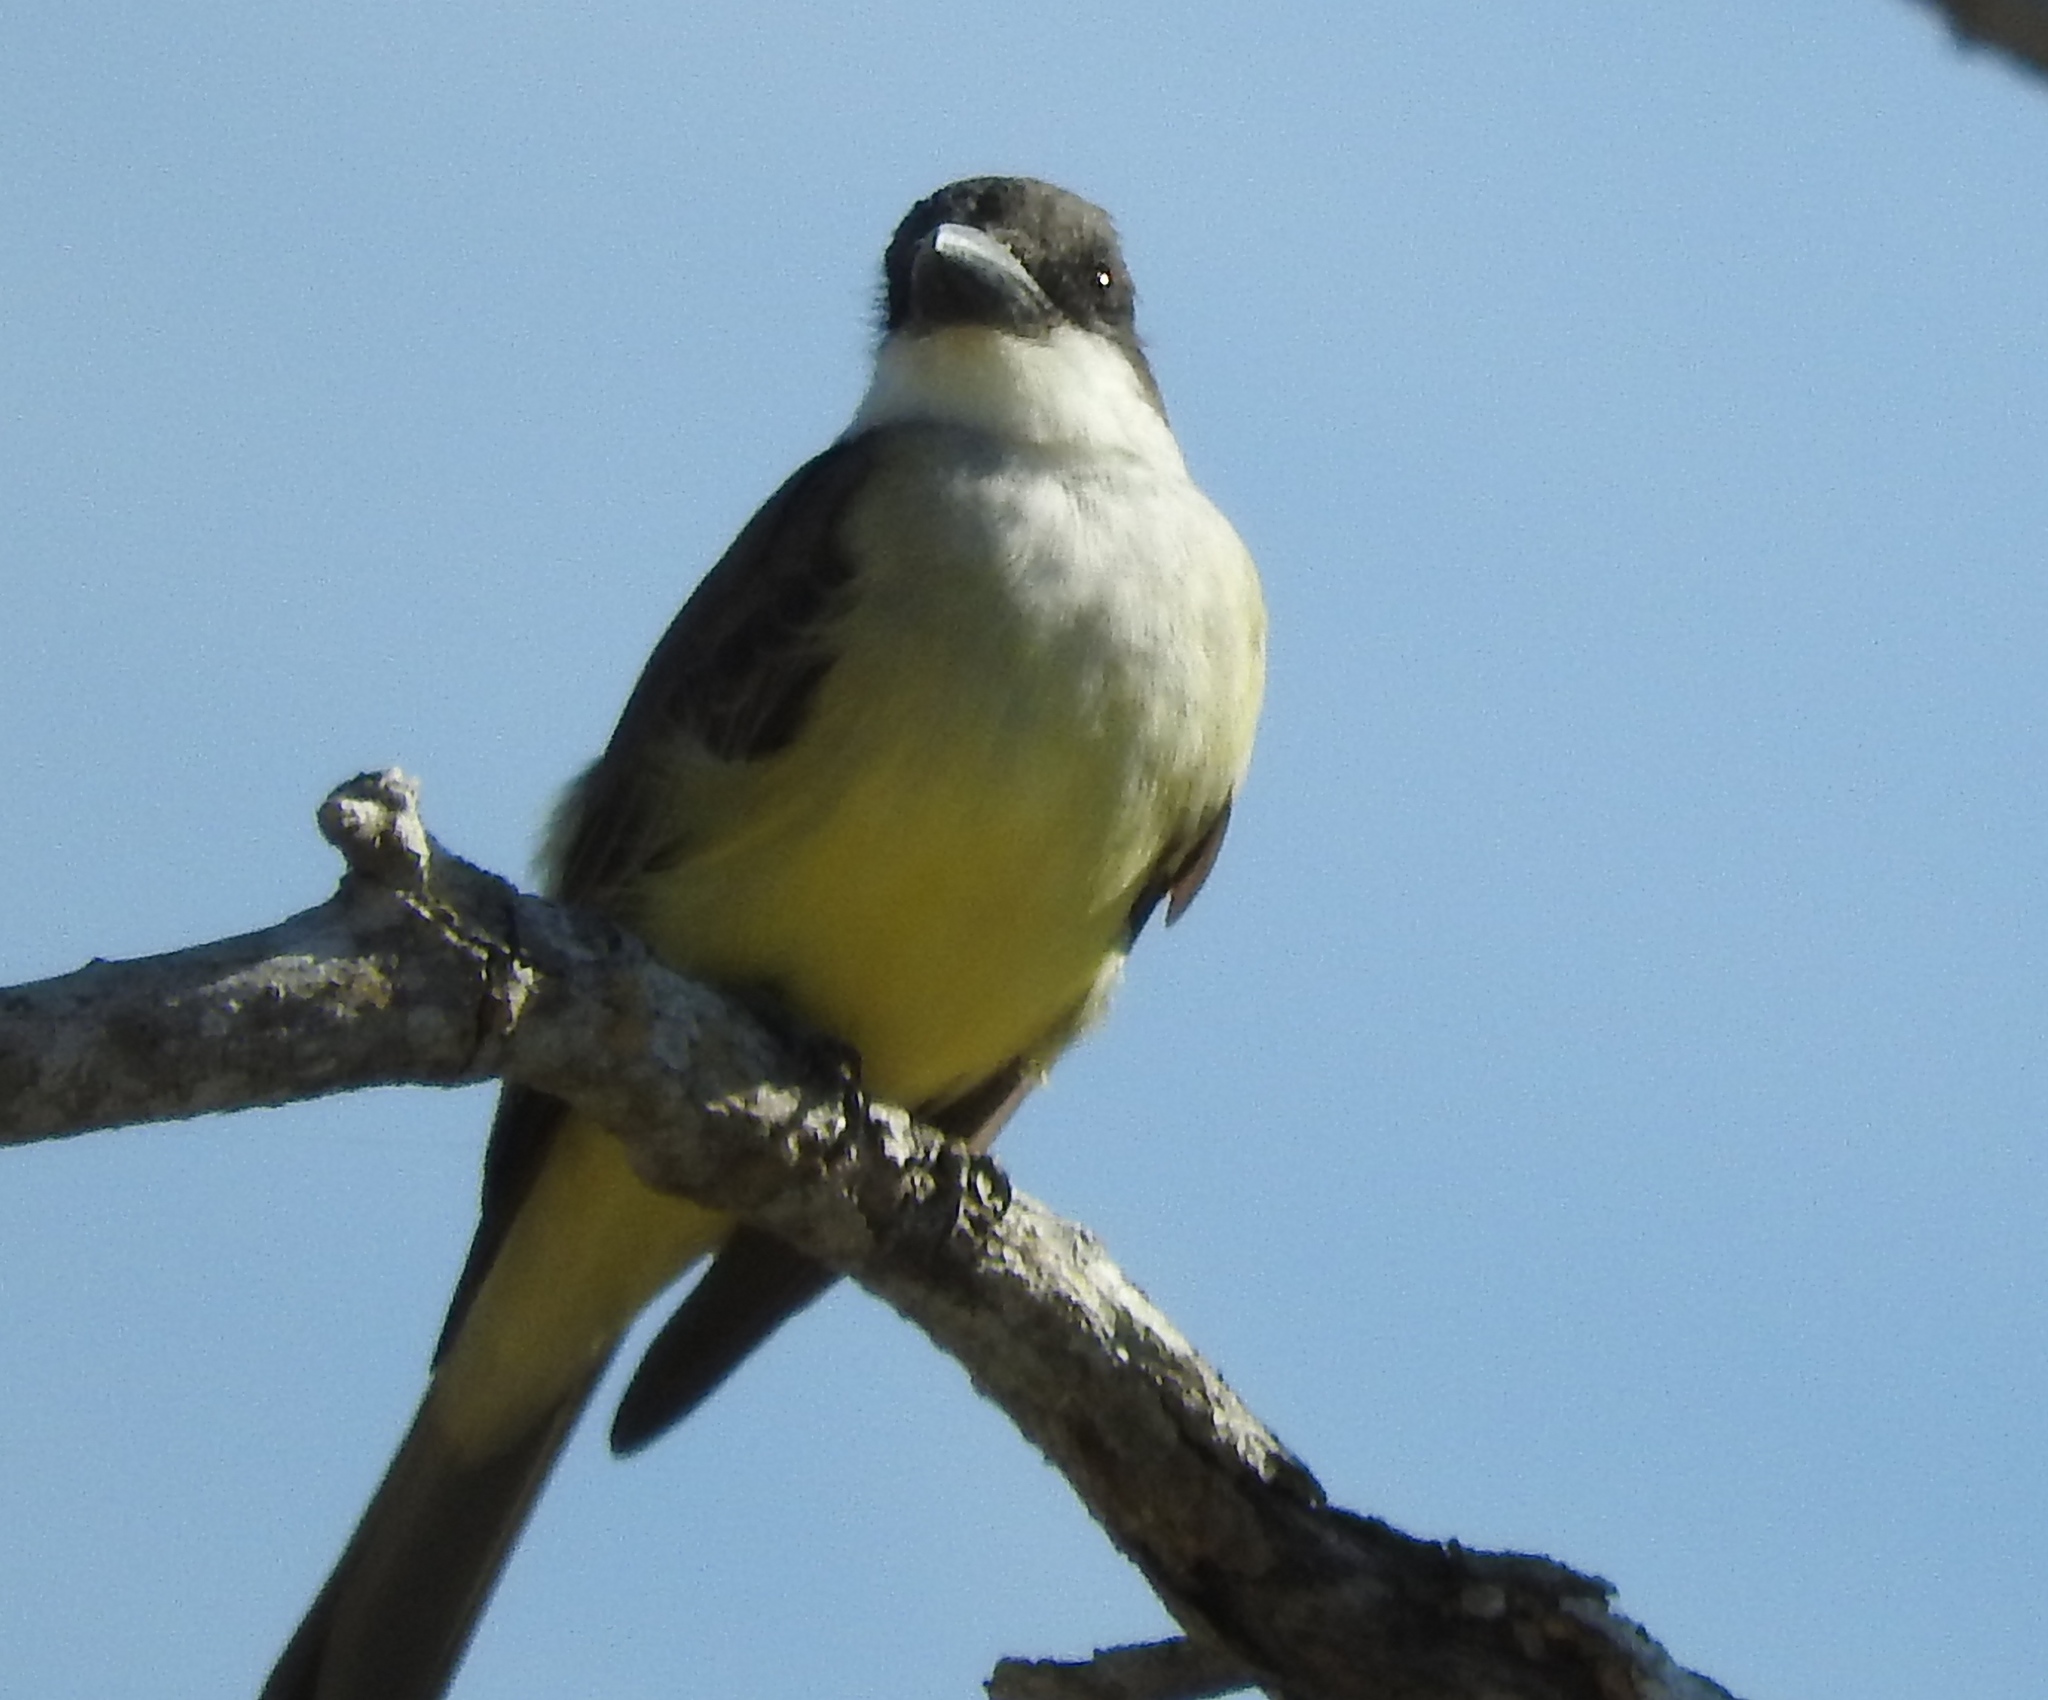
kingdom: Animalia
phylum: Chordata
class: Aves
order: Passeriformes
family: Tyrannidae
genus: Tyrannus
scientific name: Tyrannus crassirostris
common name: Thick-billed kingbird
